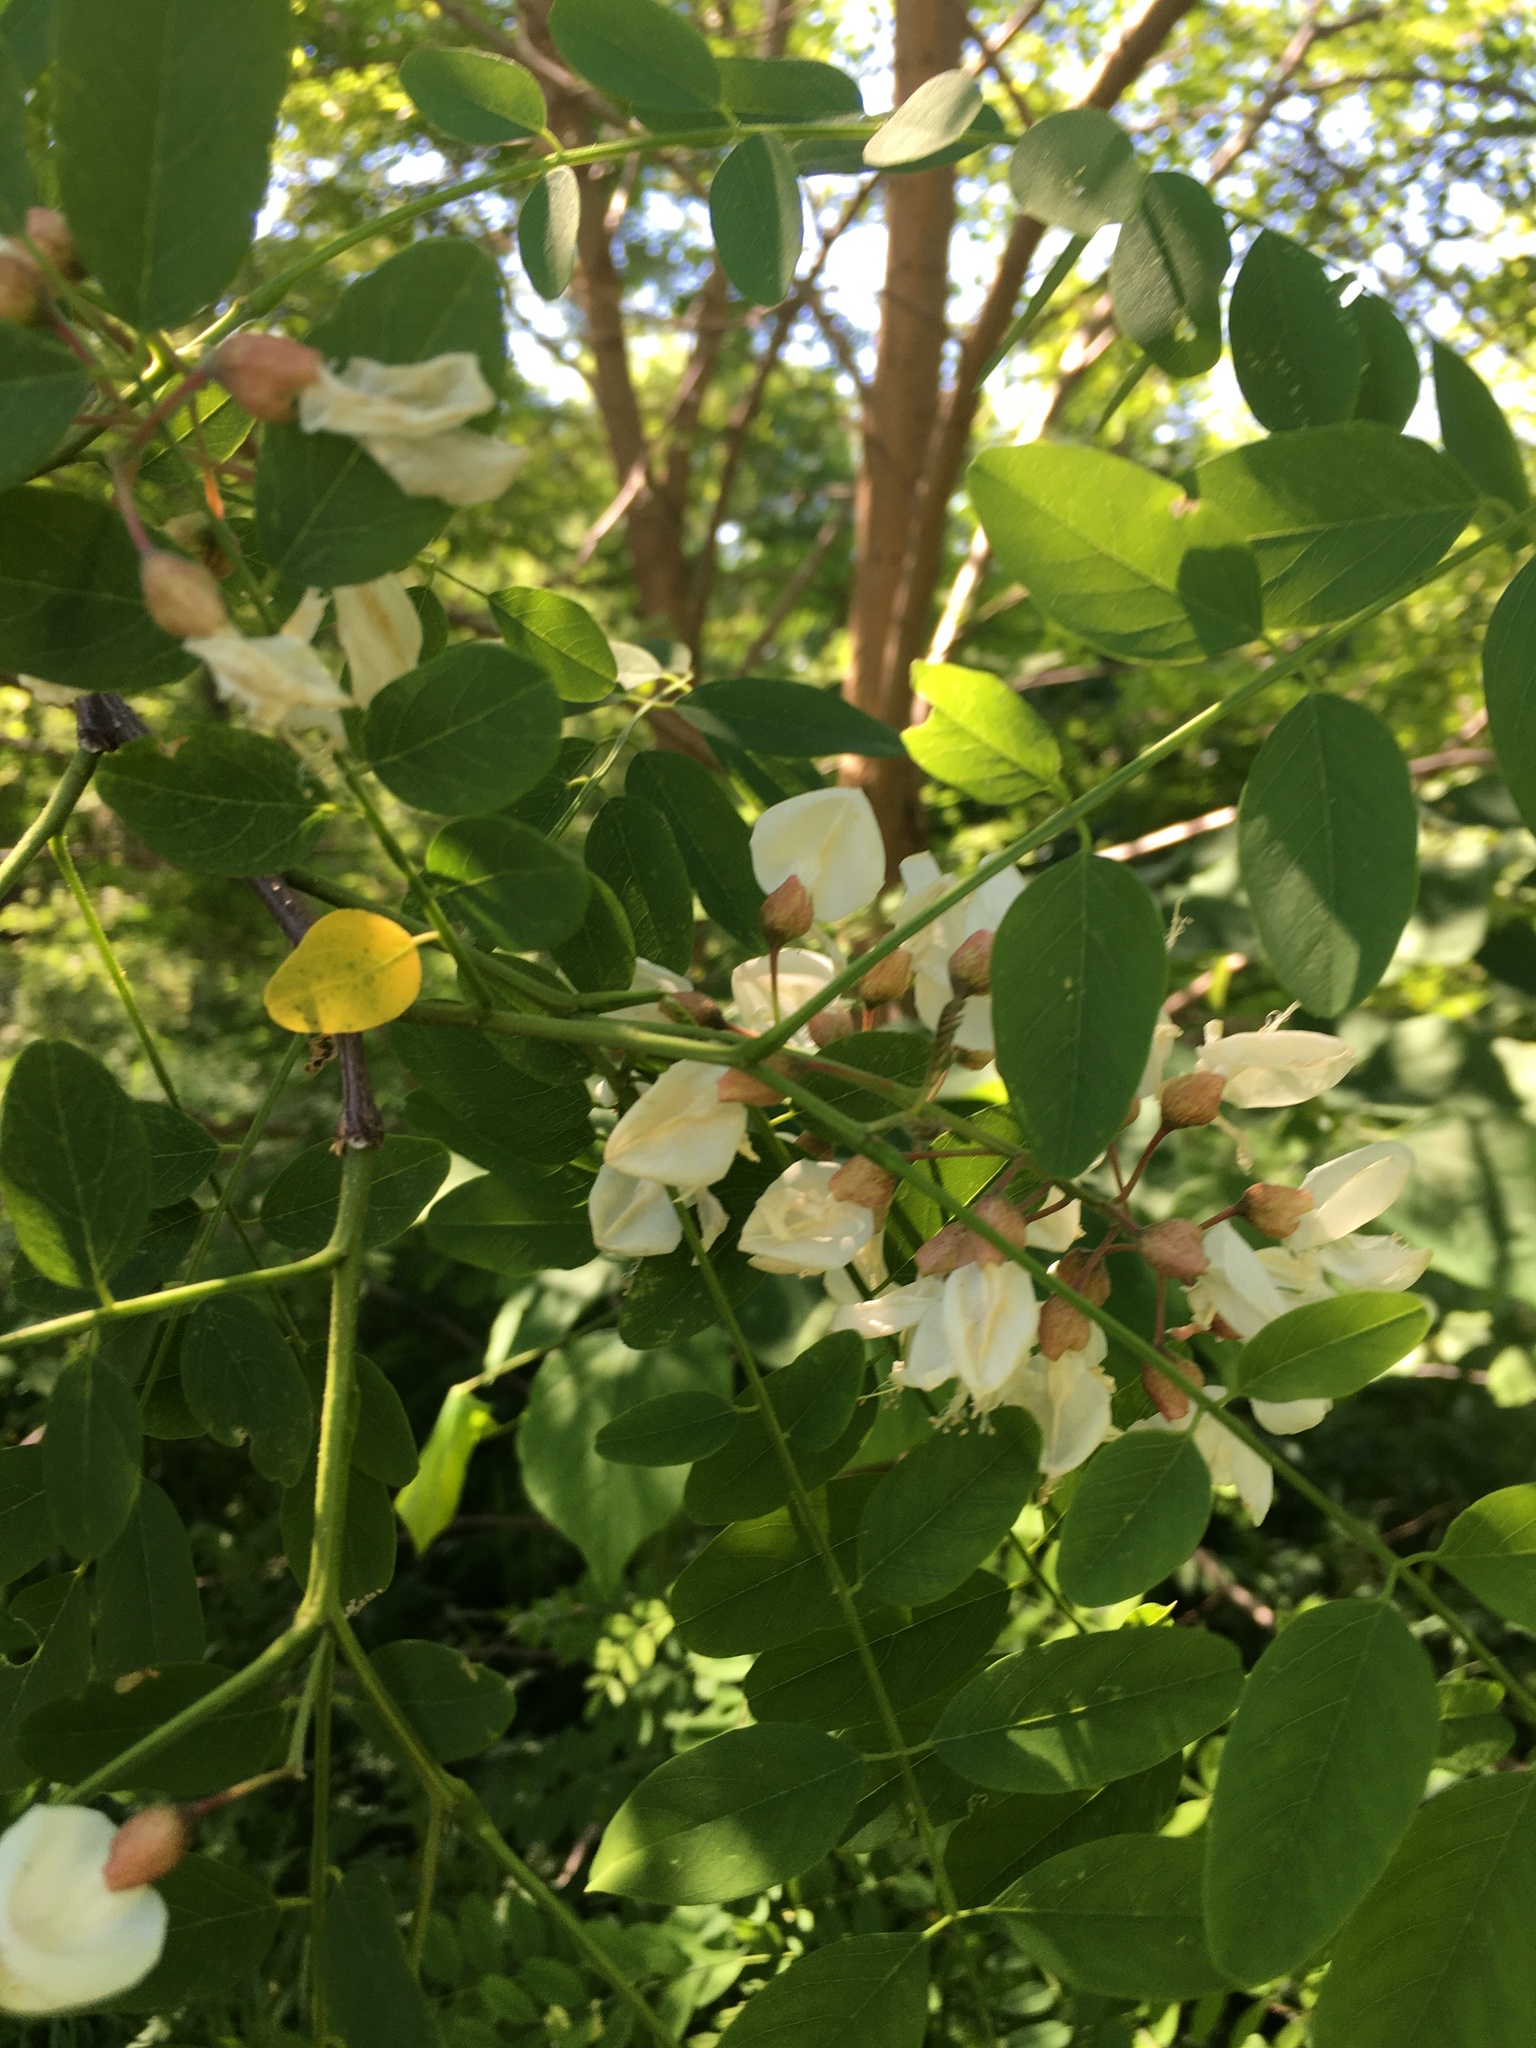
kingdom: Plantae
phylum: Tracheophyta
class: Magnoliopsida
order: Fabales
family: Fabaceae
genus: Robinia
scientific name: Robinia pseudoacacia
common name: Black locust
